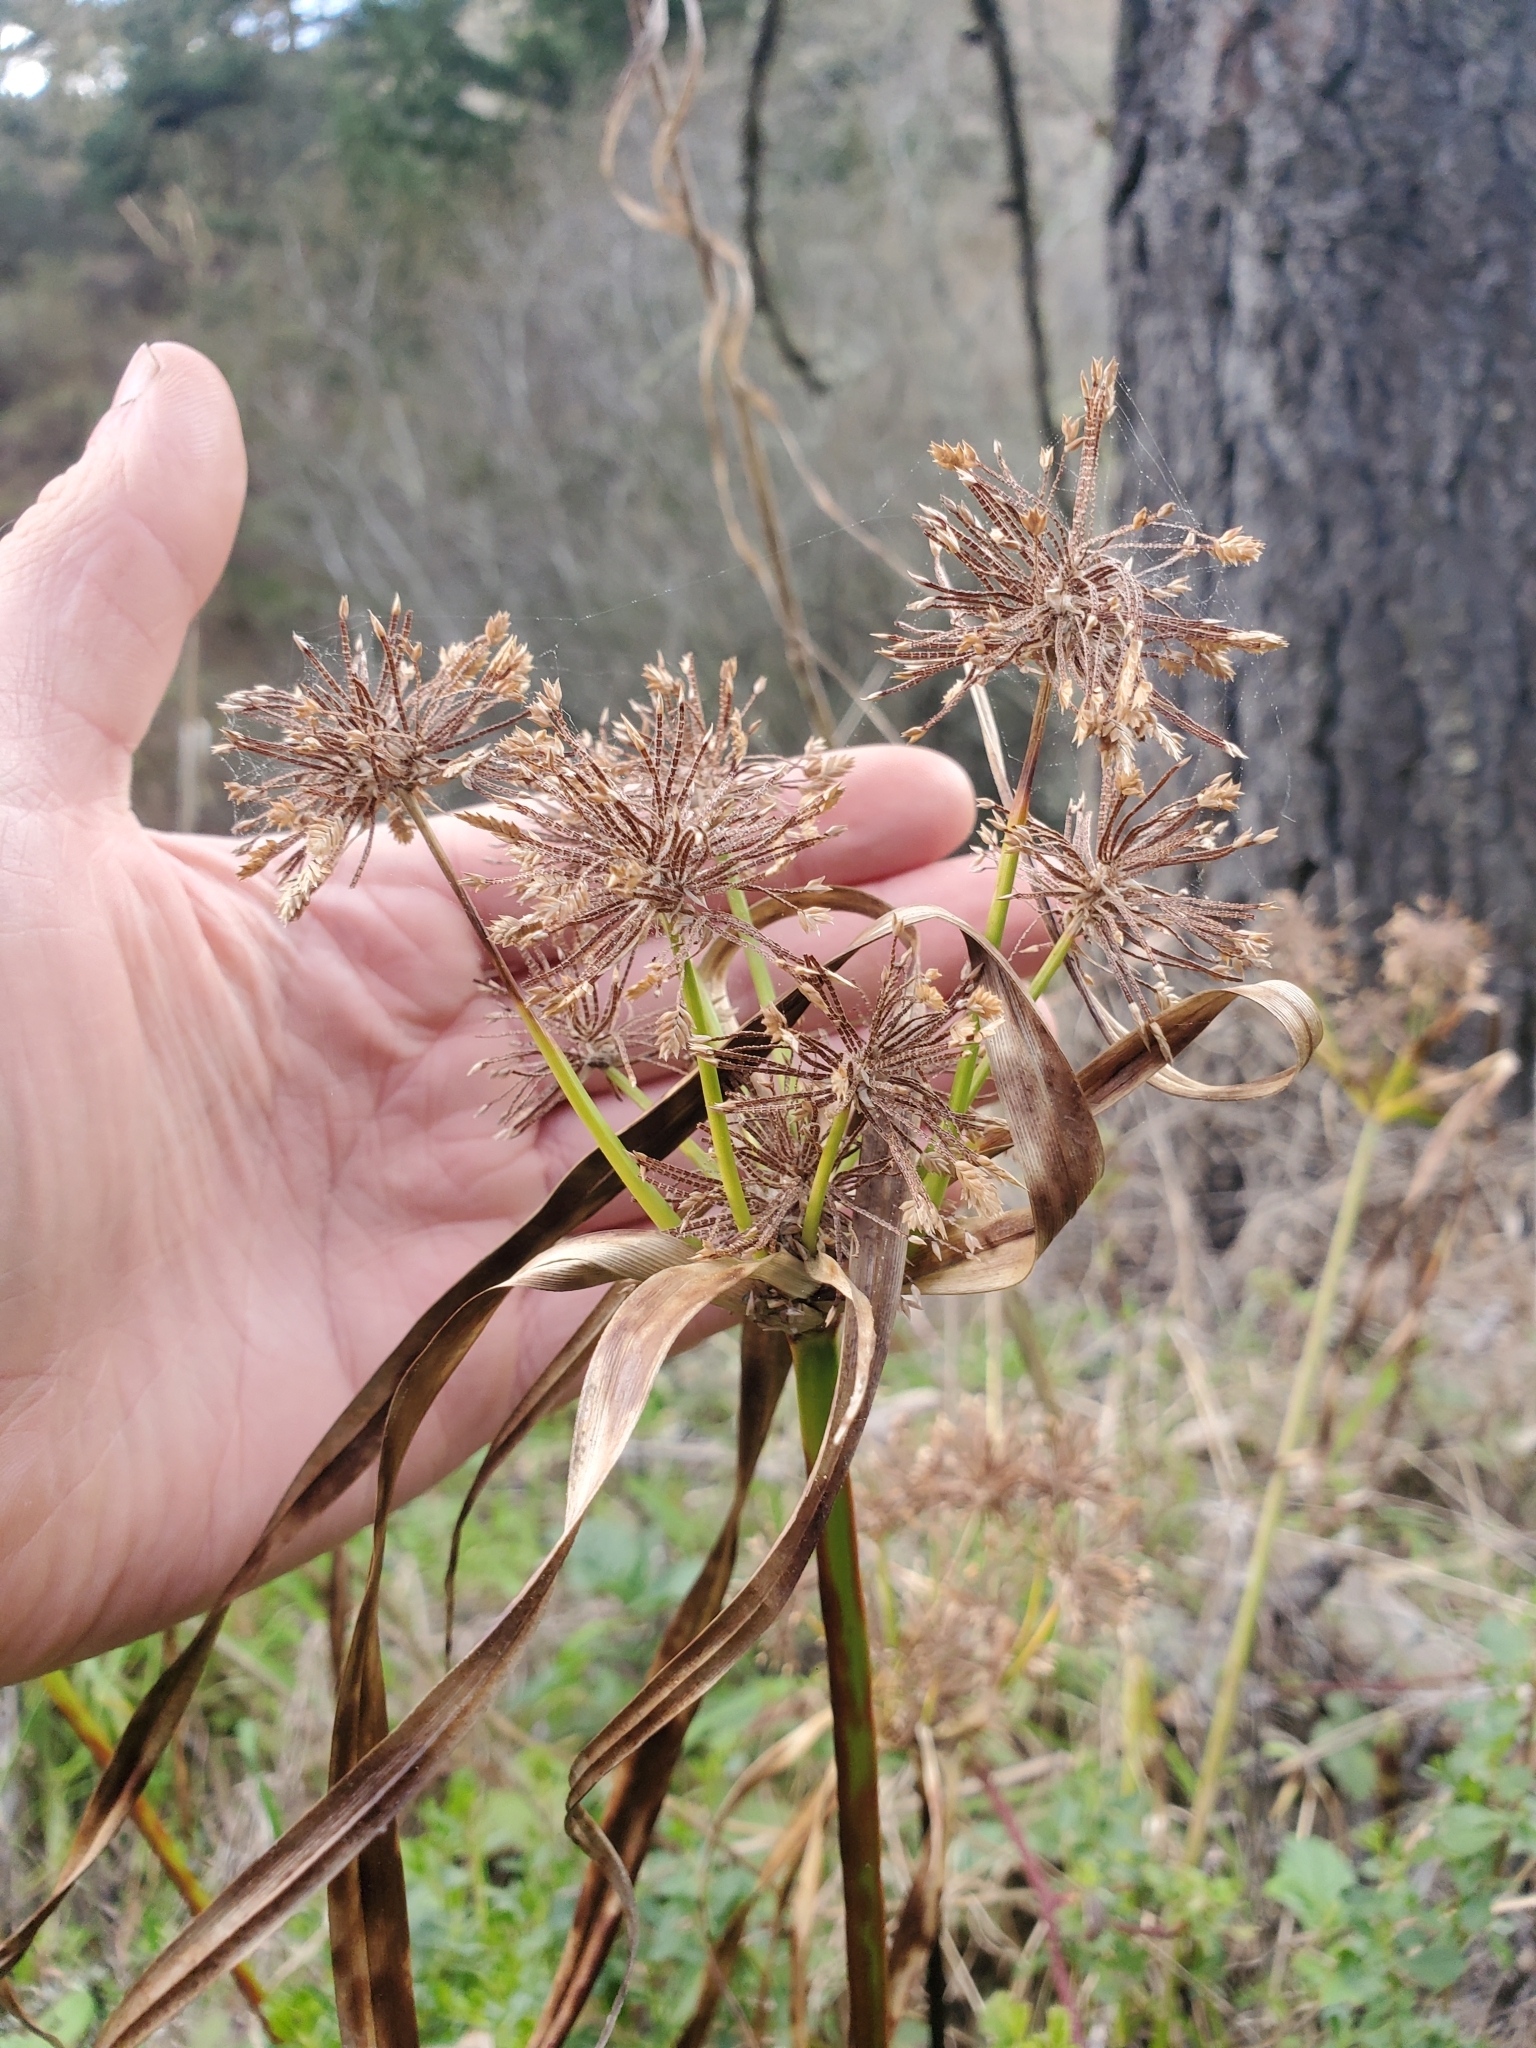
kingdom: Plantae
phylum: Tracheophyta
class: Liliopsida
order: Poales
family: Cyperaceae
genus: Cyperus
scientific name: Cyperus eragrostis
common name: Tall flatsedge
